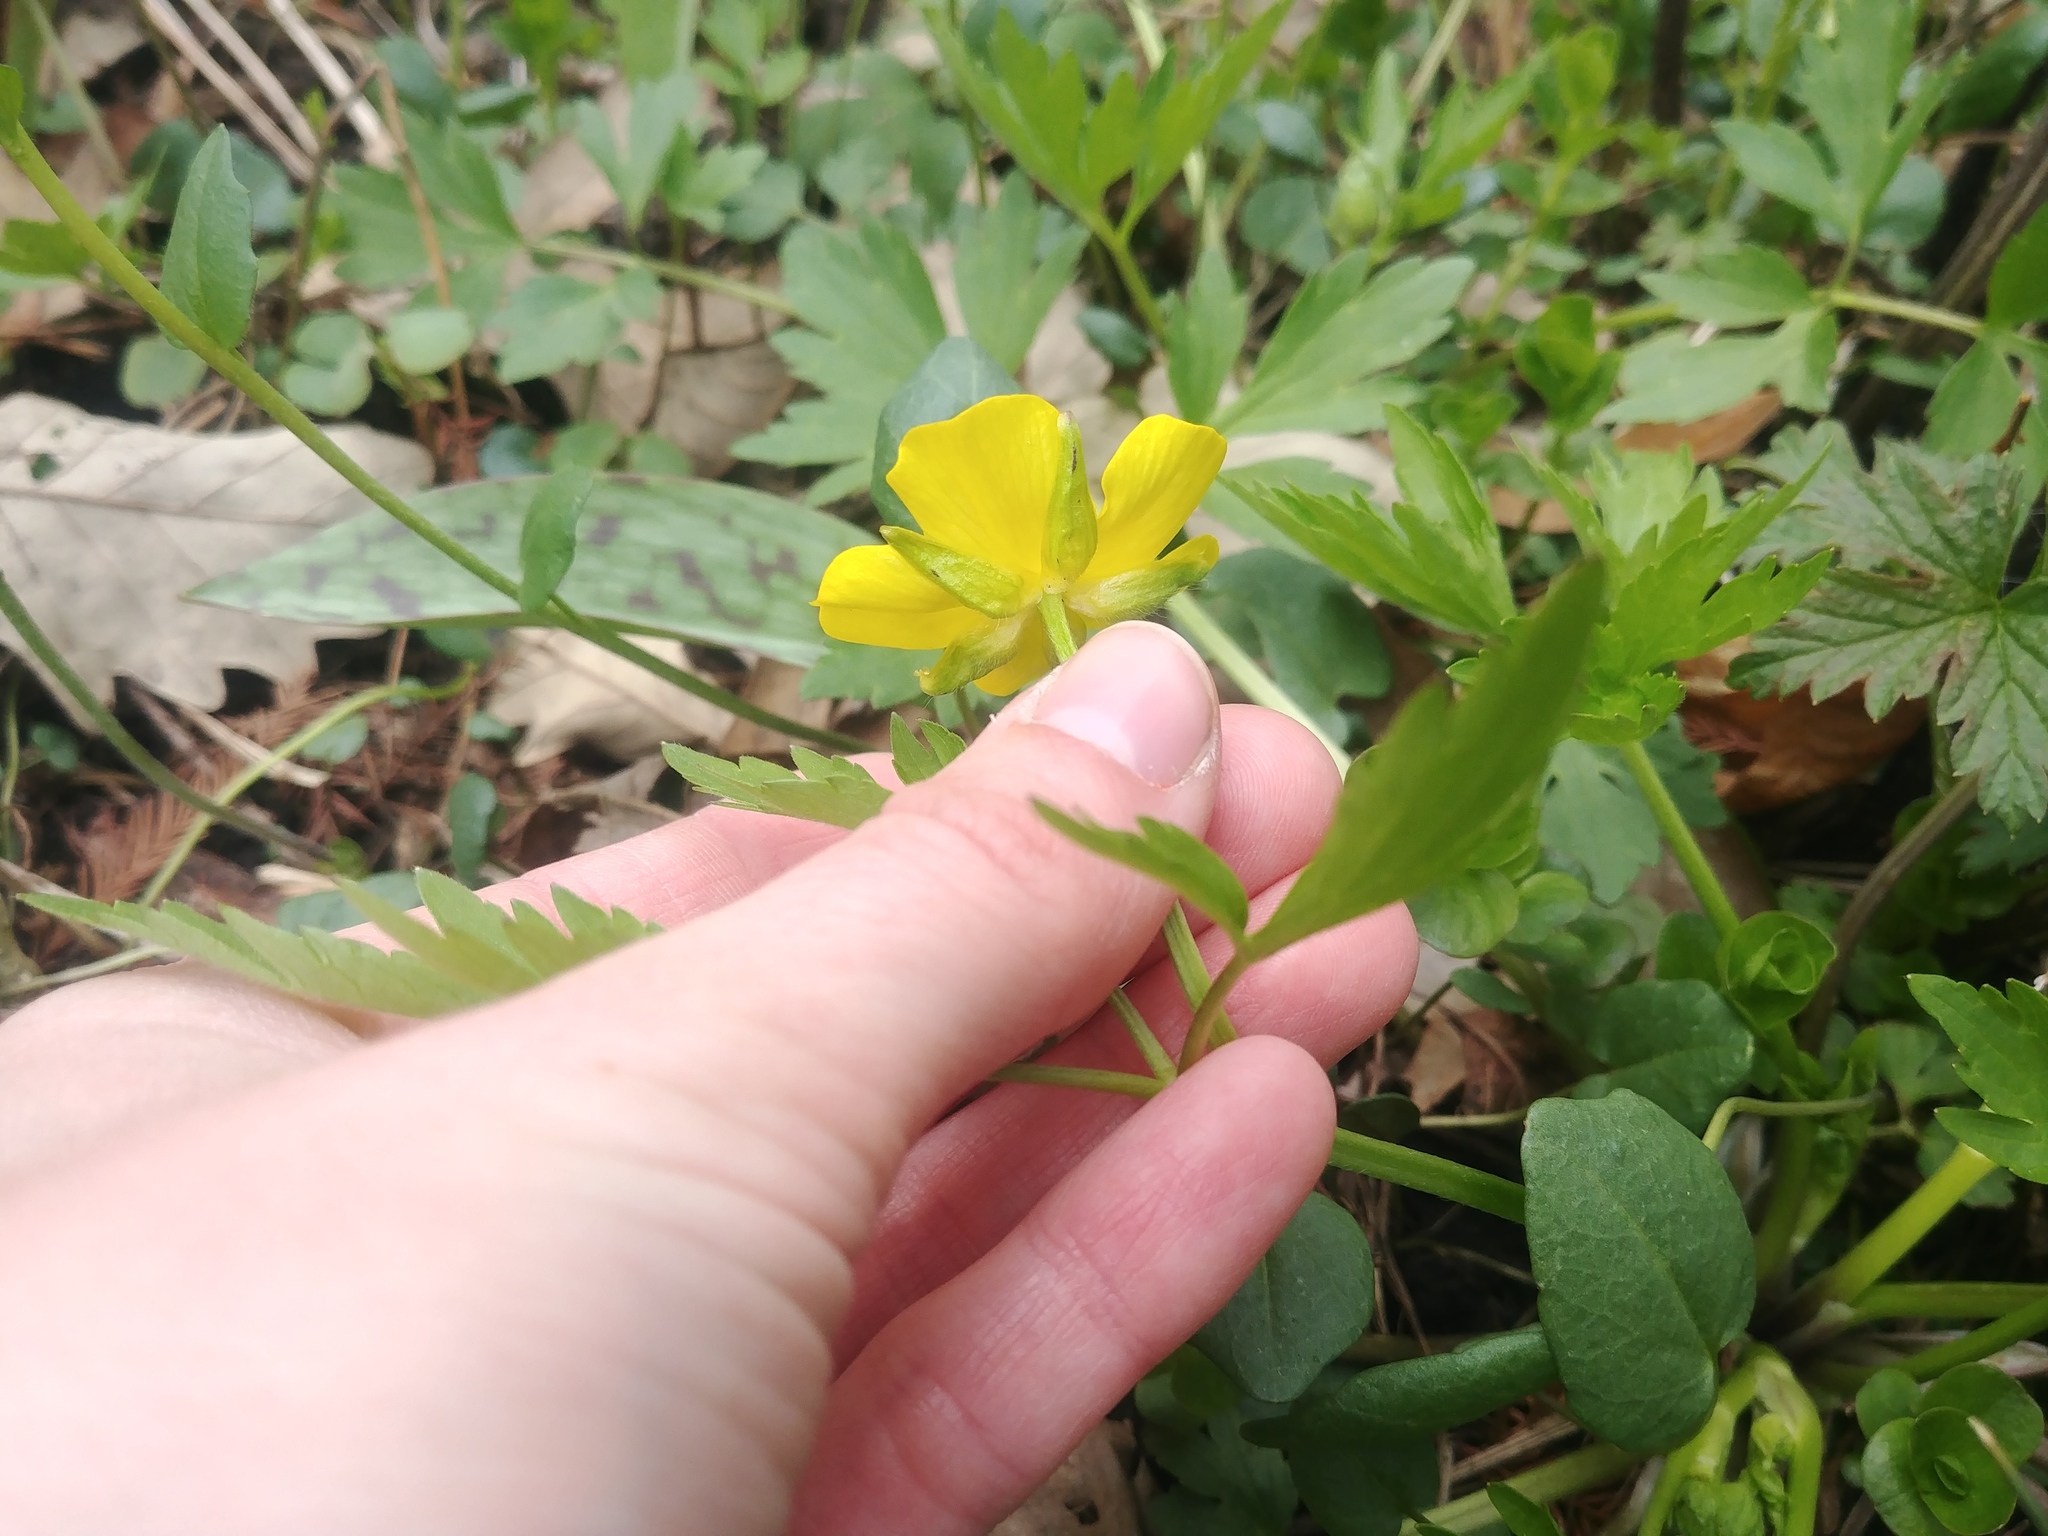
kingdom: Plantae
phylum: Tracheophyta
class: Magnoliopsida
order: Ranunculales
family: Ranunculaceae
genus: Ranunculus
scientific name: Ranunculus hispidus
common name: Bristly buttercup
